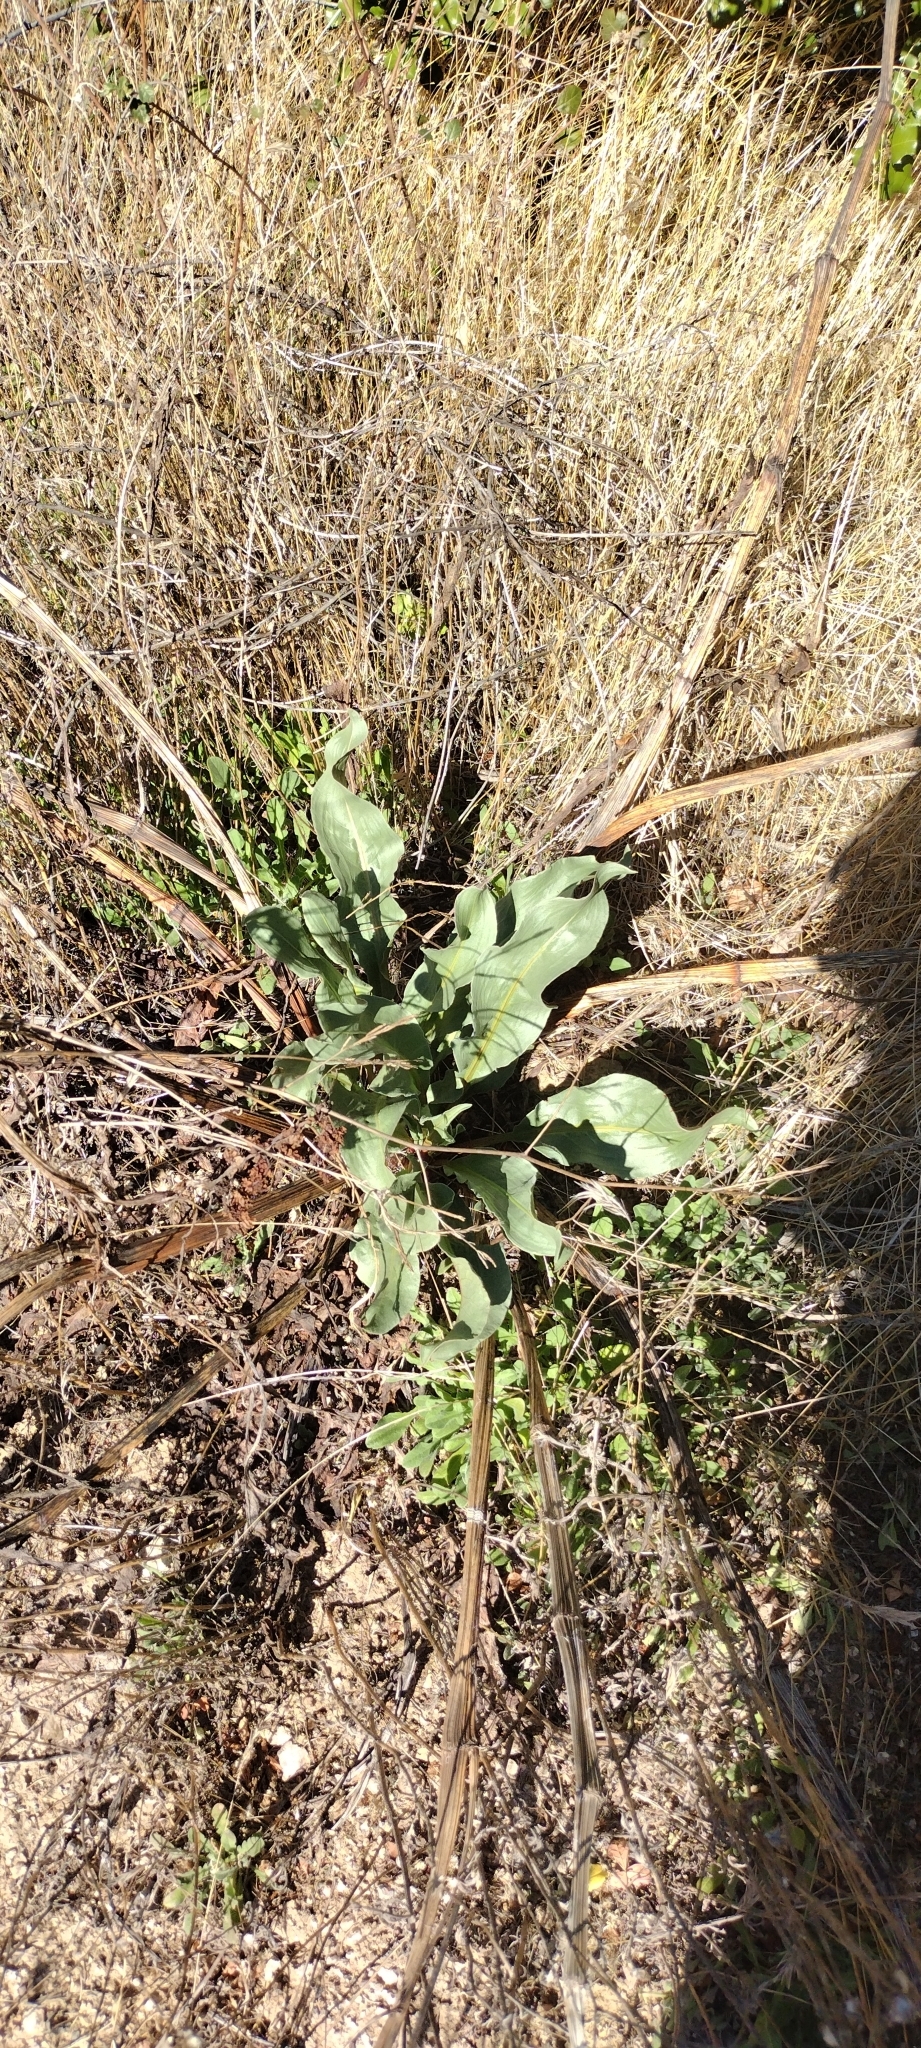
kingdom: Plantae
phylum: Tracheophyta
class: Magnoliopsida
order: Caryophyllales
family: Polygonaceae
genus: Rumex
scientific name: Rumex hymenosepalus
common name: Ganagra
